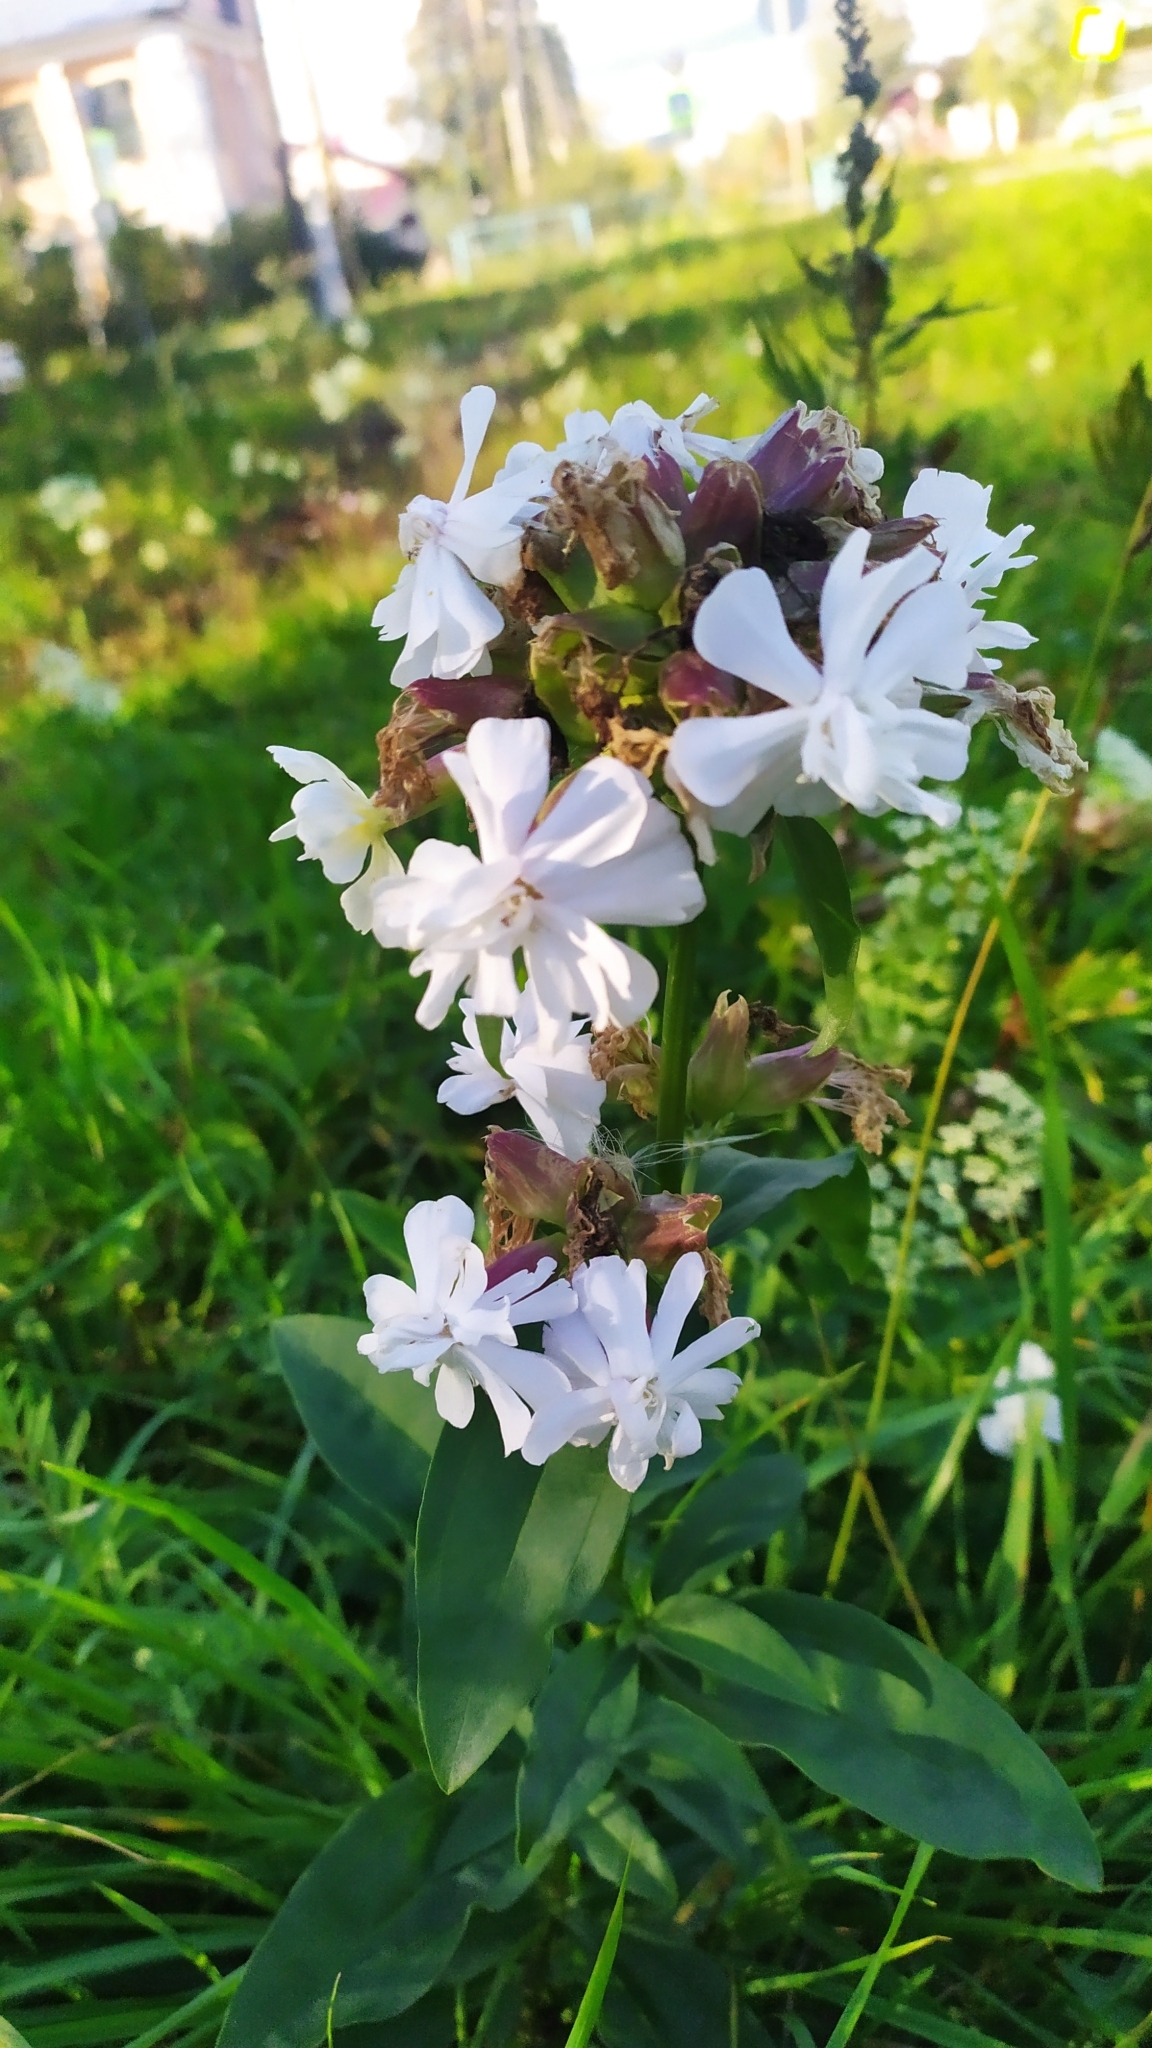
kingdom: Plantae
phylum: Tracheophyta
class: Magnoliopsida
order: Caryophyllales
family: Caryophyllaceae
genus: Saponaria
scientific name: Saponaria officinalis
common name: Soapwort
